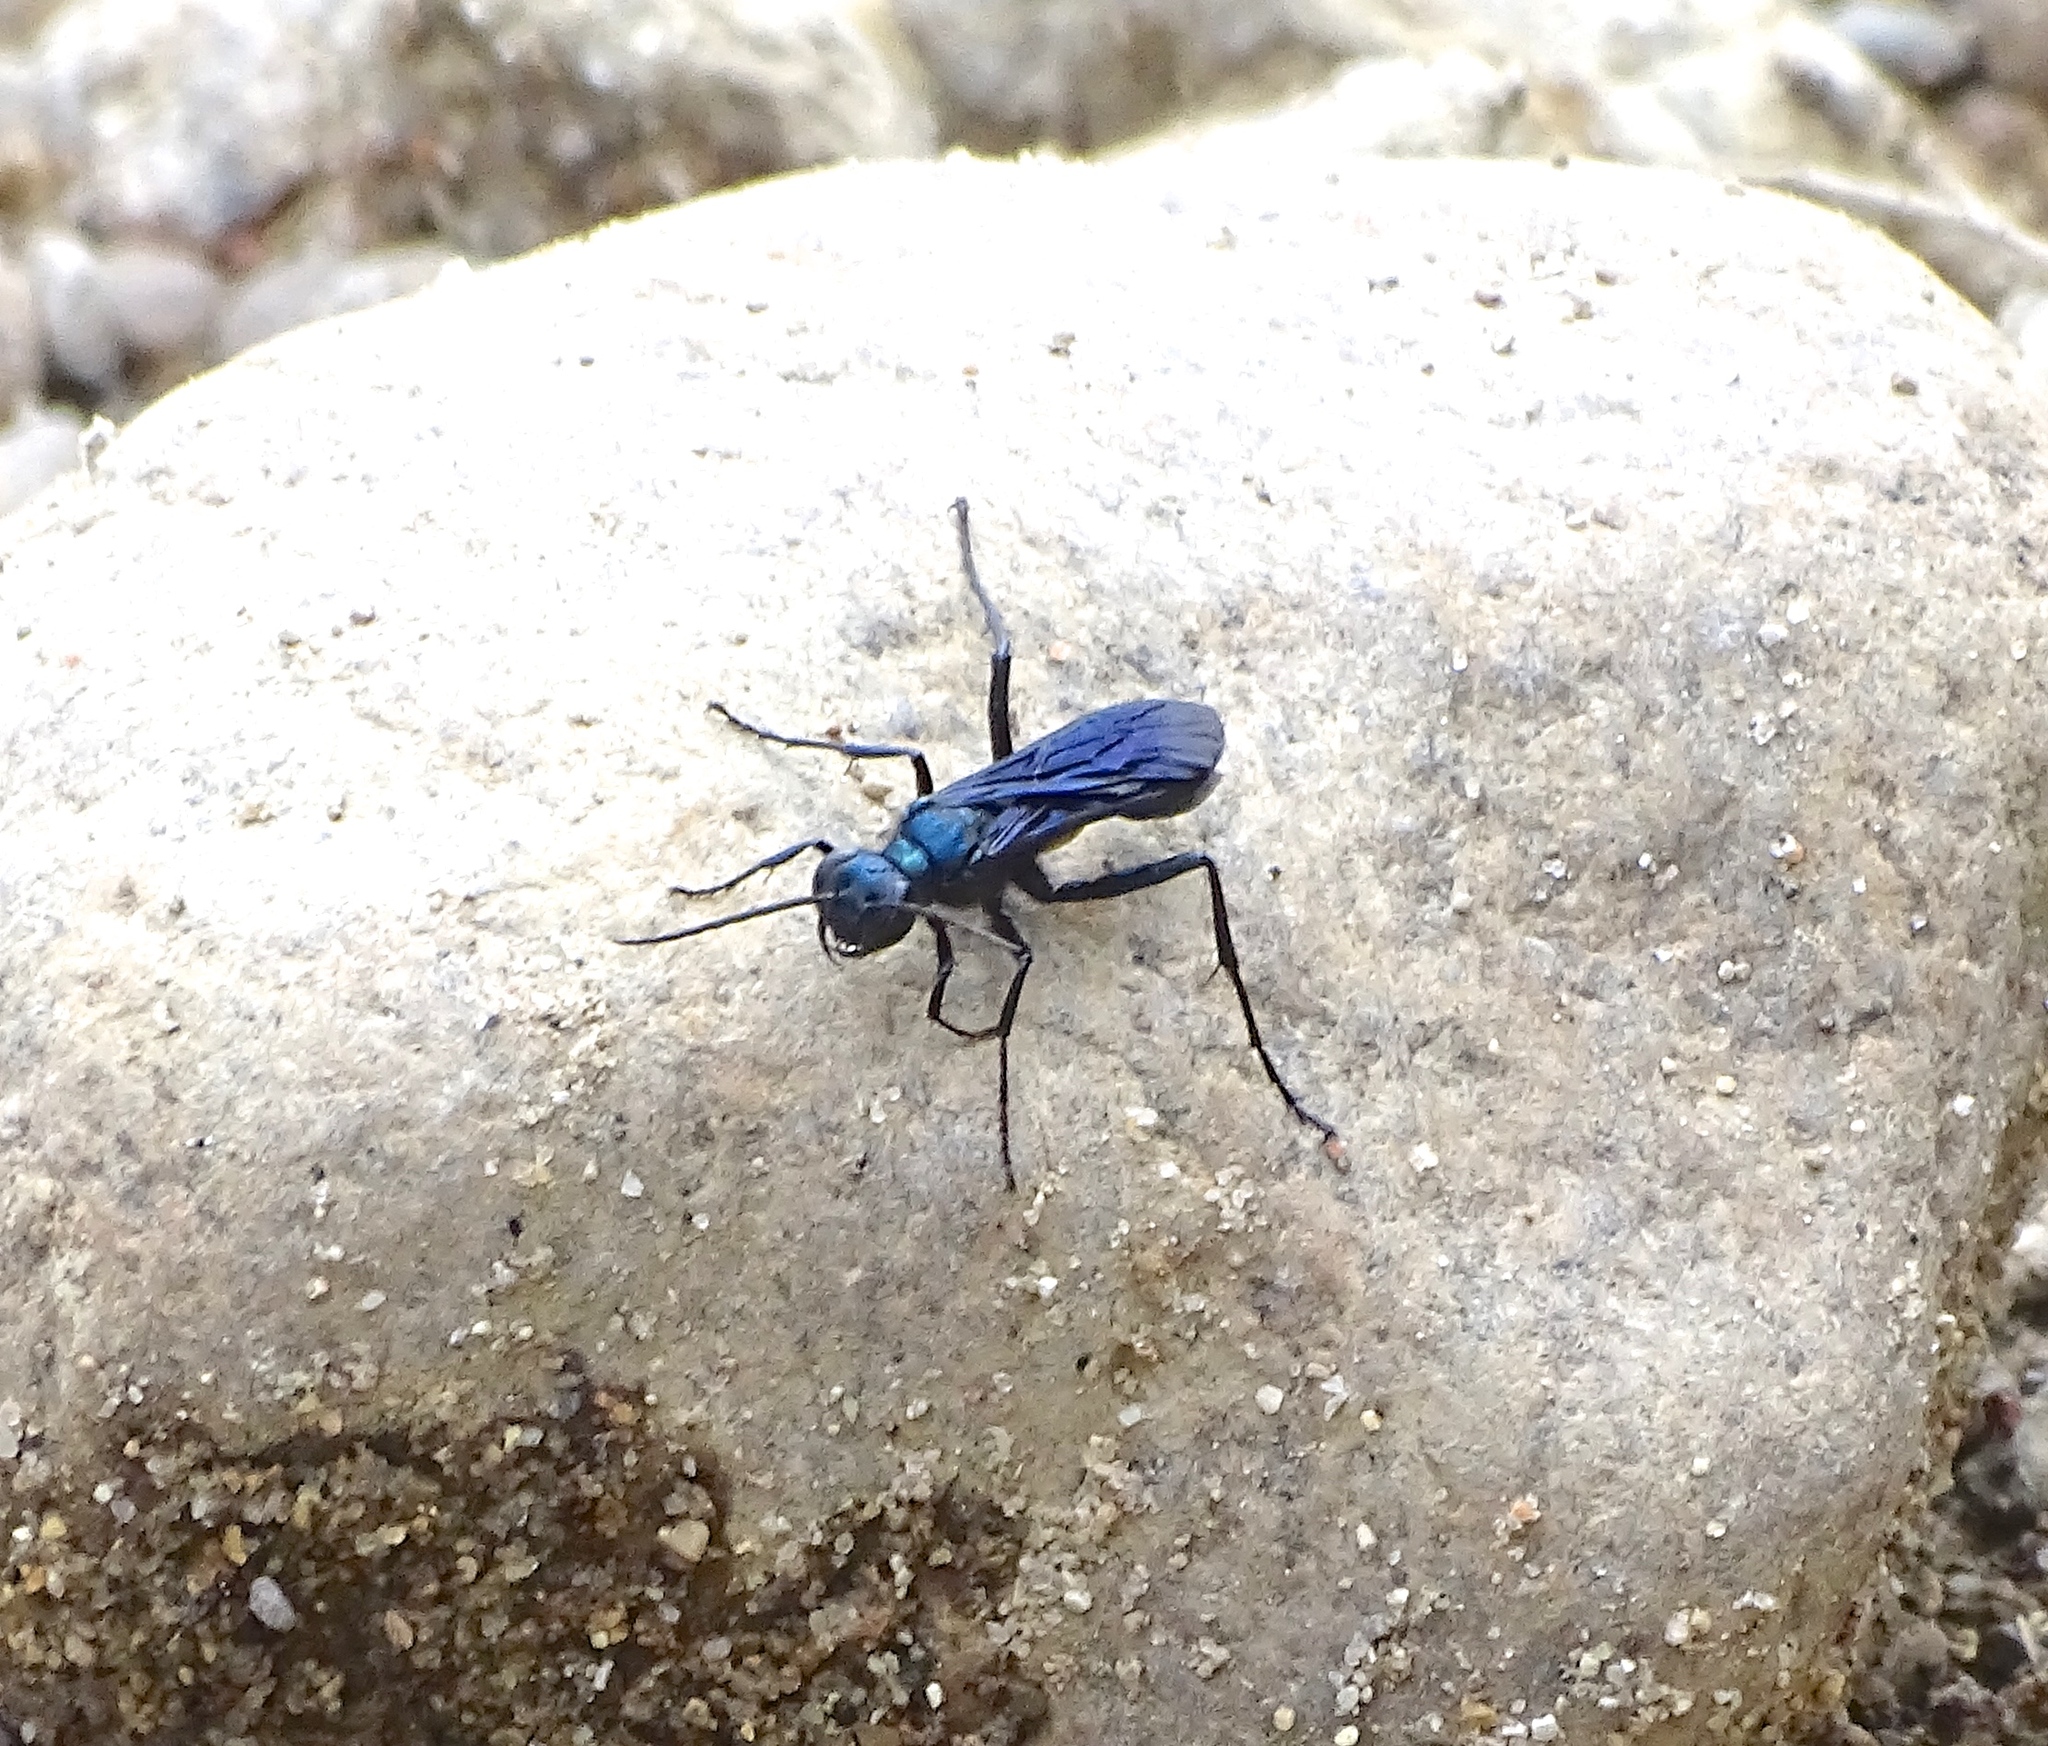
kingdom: Animalia
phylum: Arthropoda
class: Insecta
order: Hymenoptera
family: Sphecidae
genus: Chalybion
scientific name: Chalybion californicum
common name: Mud dauber
